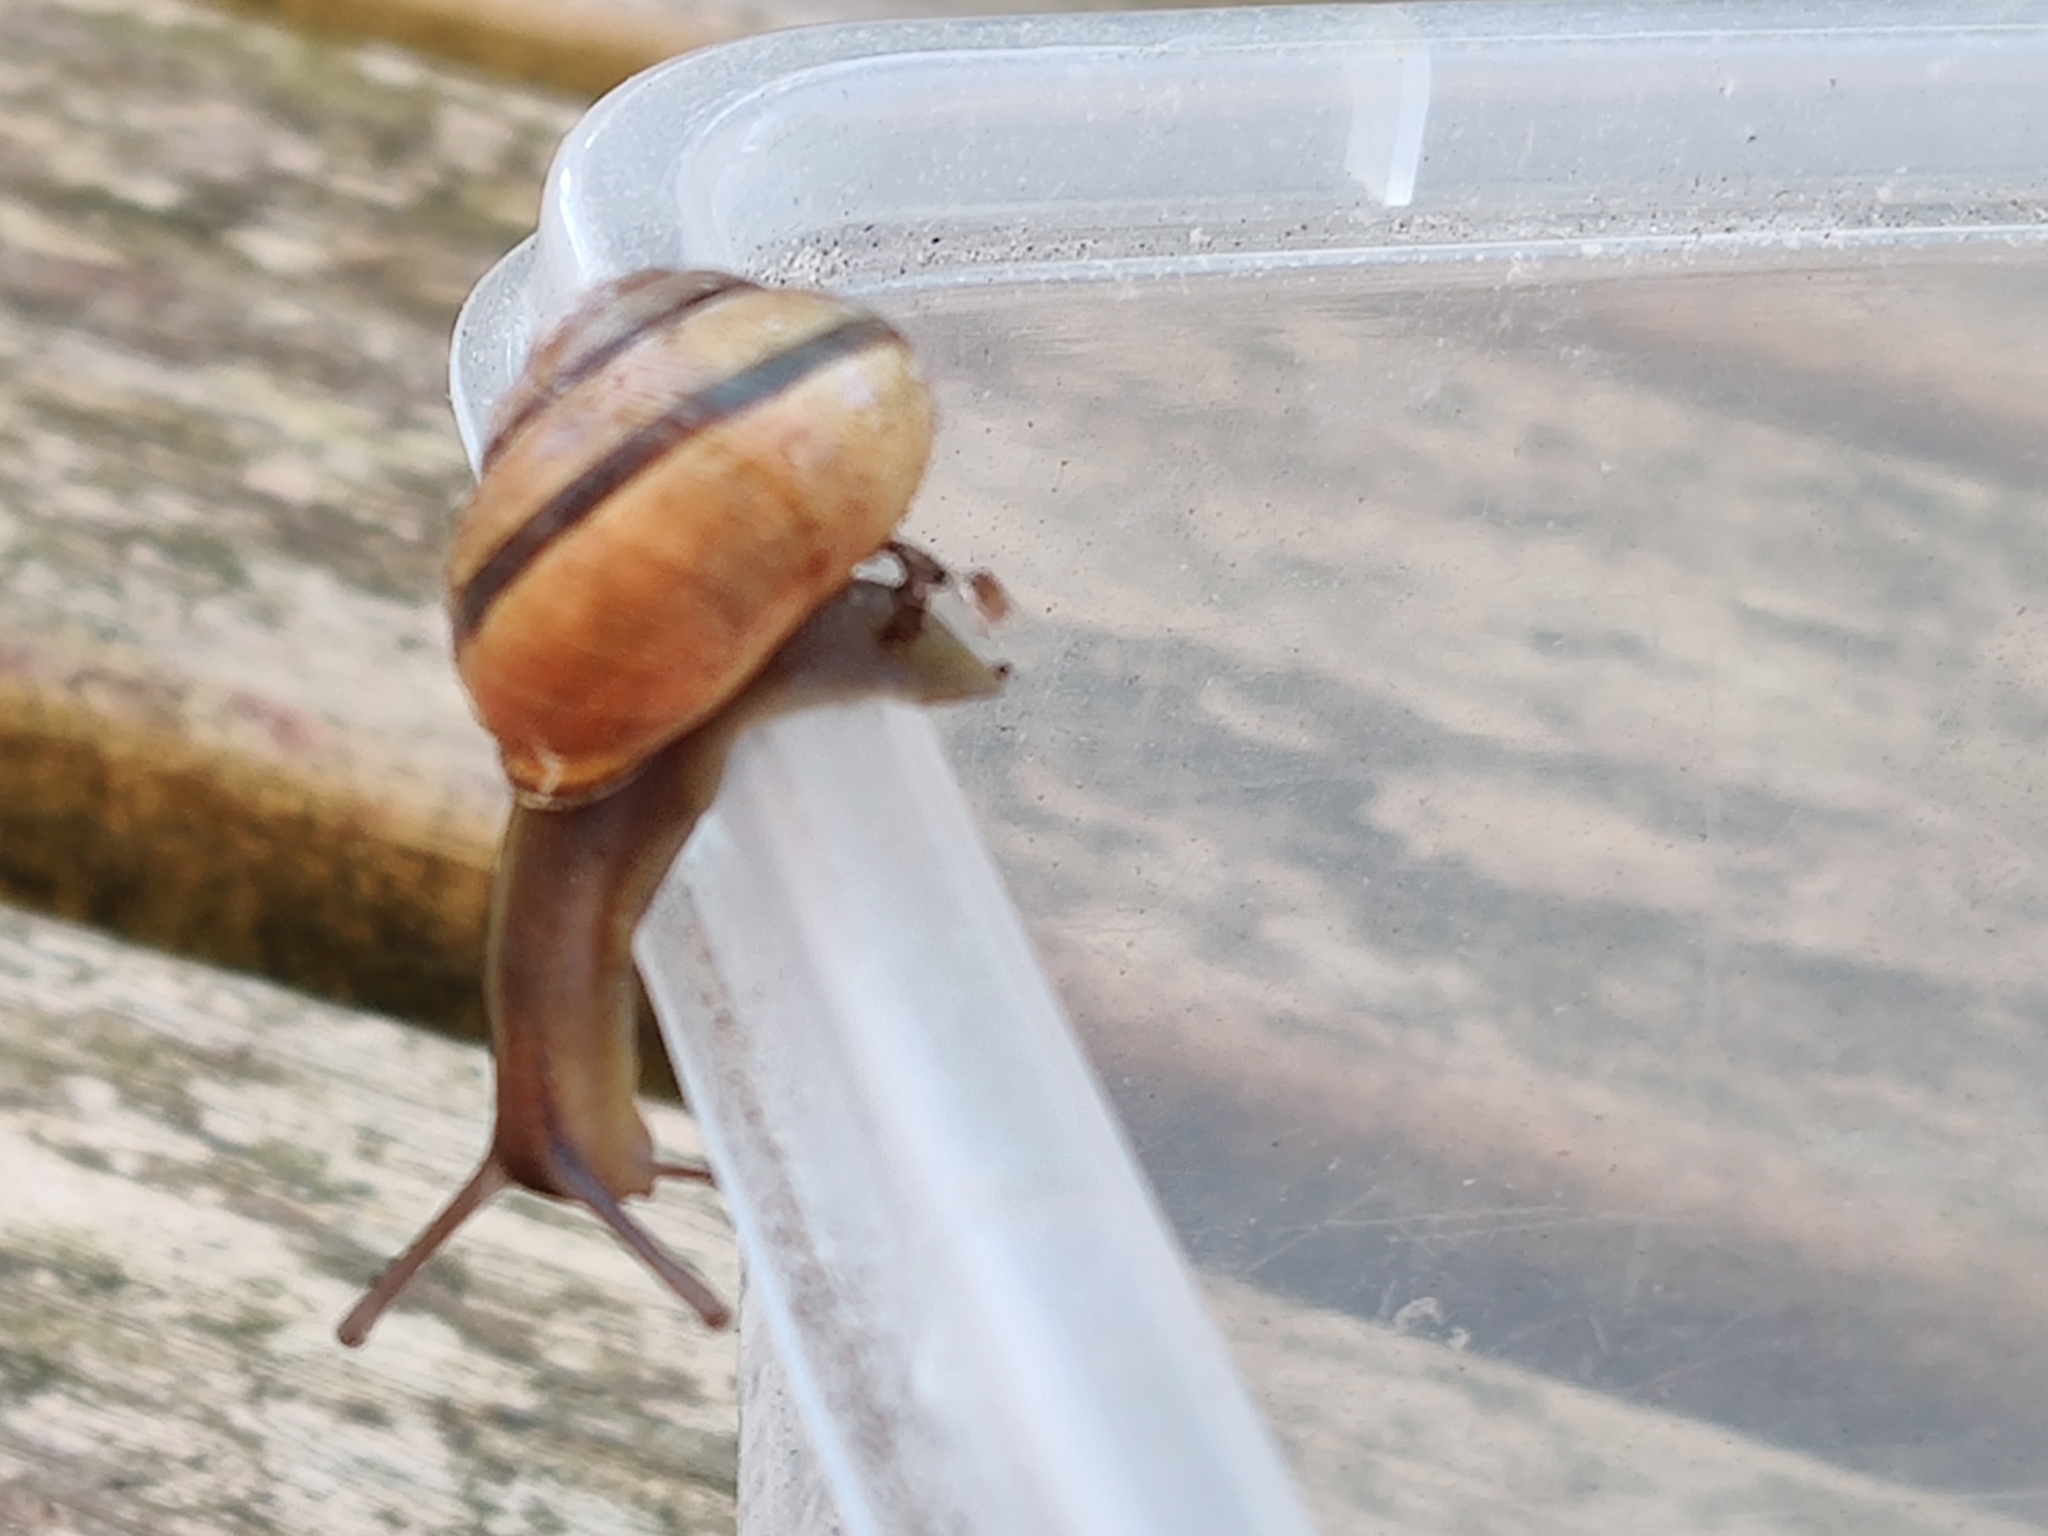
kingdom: Animalia
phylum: Mollusca
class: Gastropoda
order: Stylommatophora
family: Helicidae
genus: Cepaea
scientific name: Cepaea nemoralis
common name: Grovesnail
